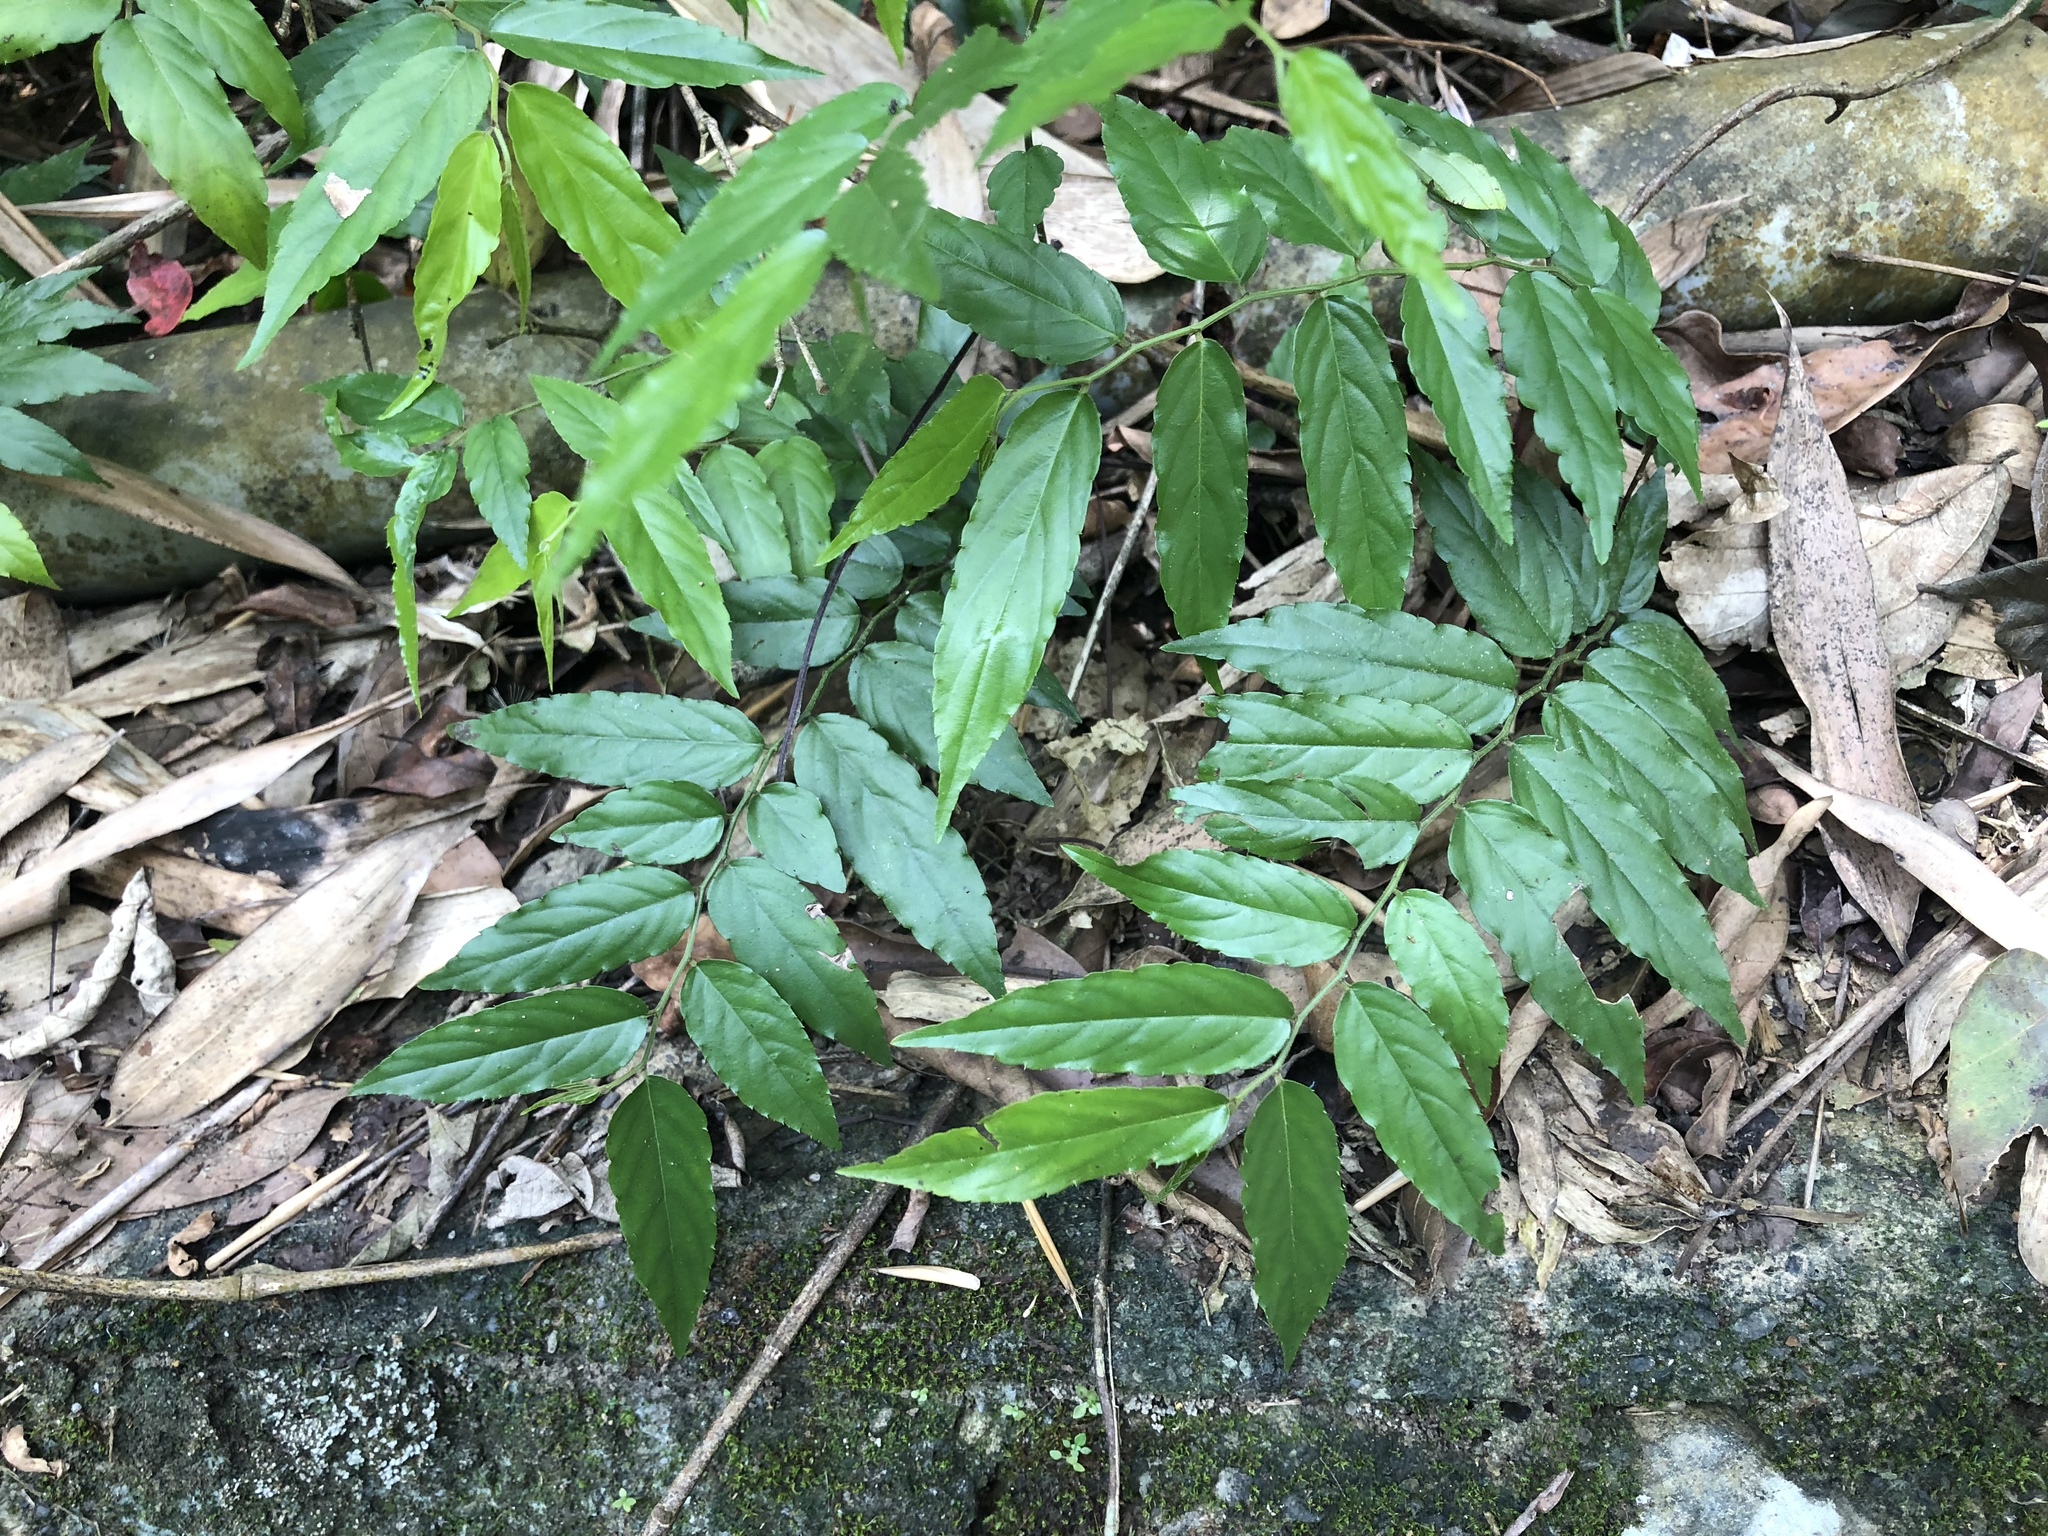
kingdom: Plantae
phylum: Tracheophyta
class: Magnoliopsida
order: Rosales
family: Rhamnaceae
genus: Ventilago
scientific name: Ventilago leiocarpa
